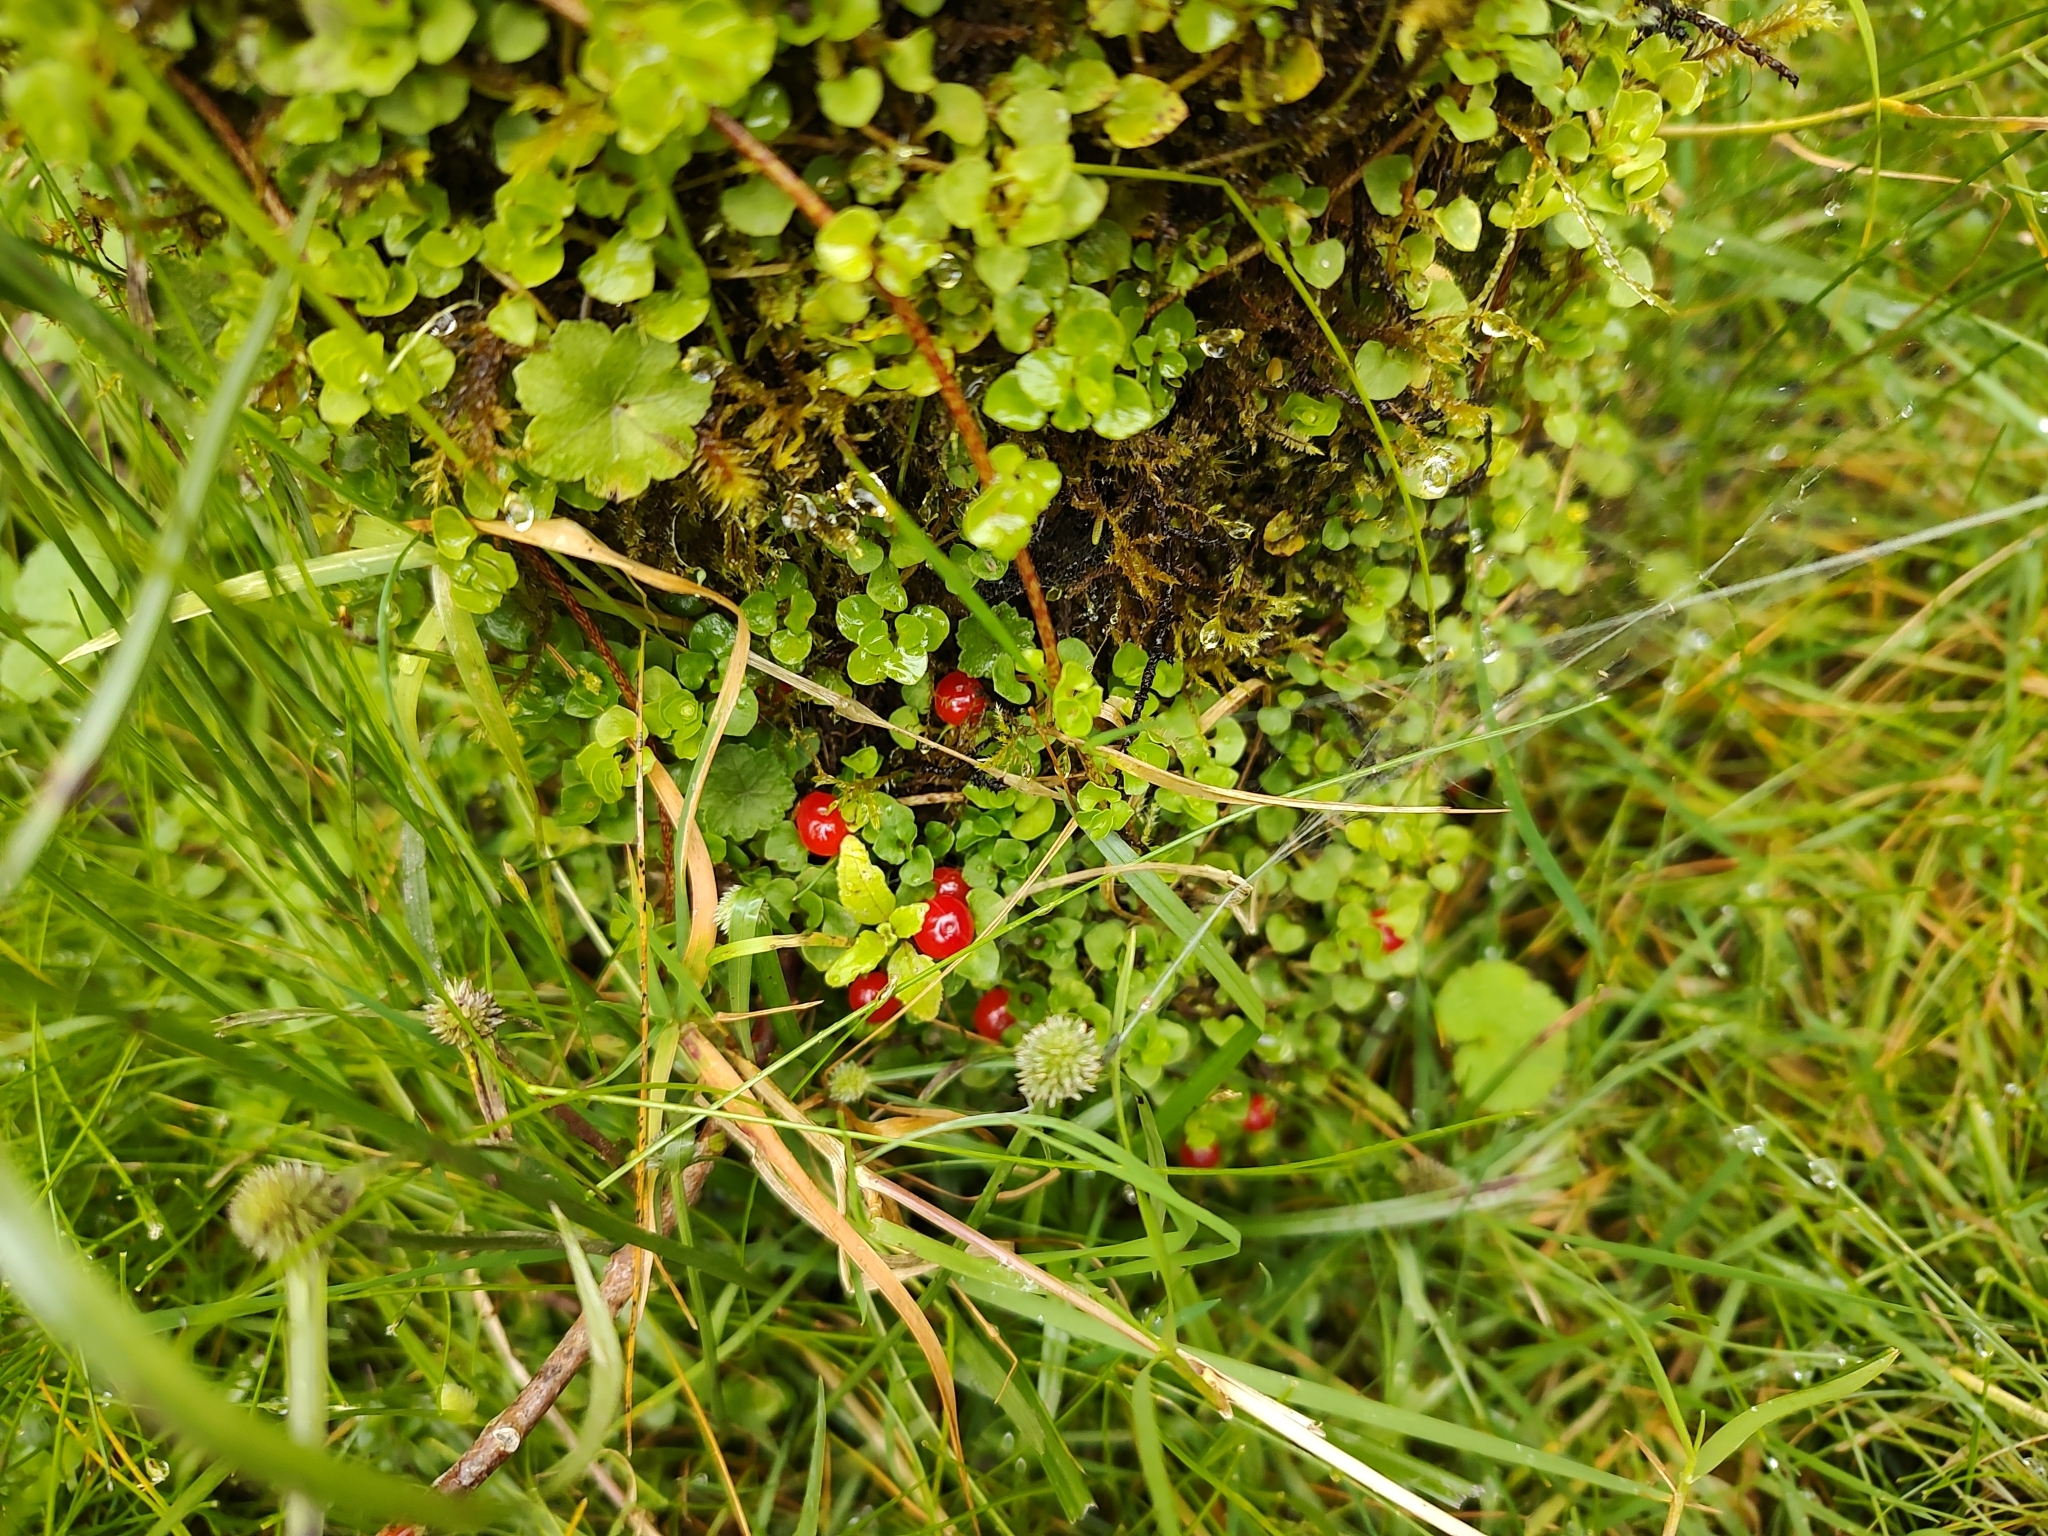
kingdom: Plantae
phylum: Tracheophyta
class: Magnoliopsida
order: Gentianales
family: Rubiaceae
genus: Nertera
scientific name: Nertera granadensis
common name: Beadplant
